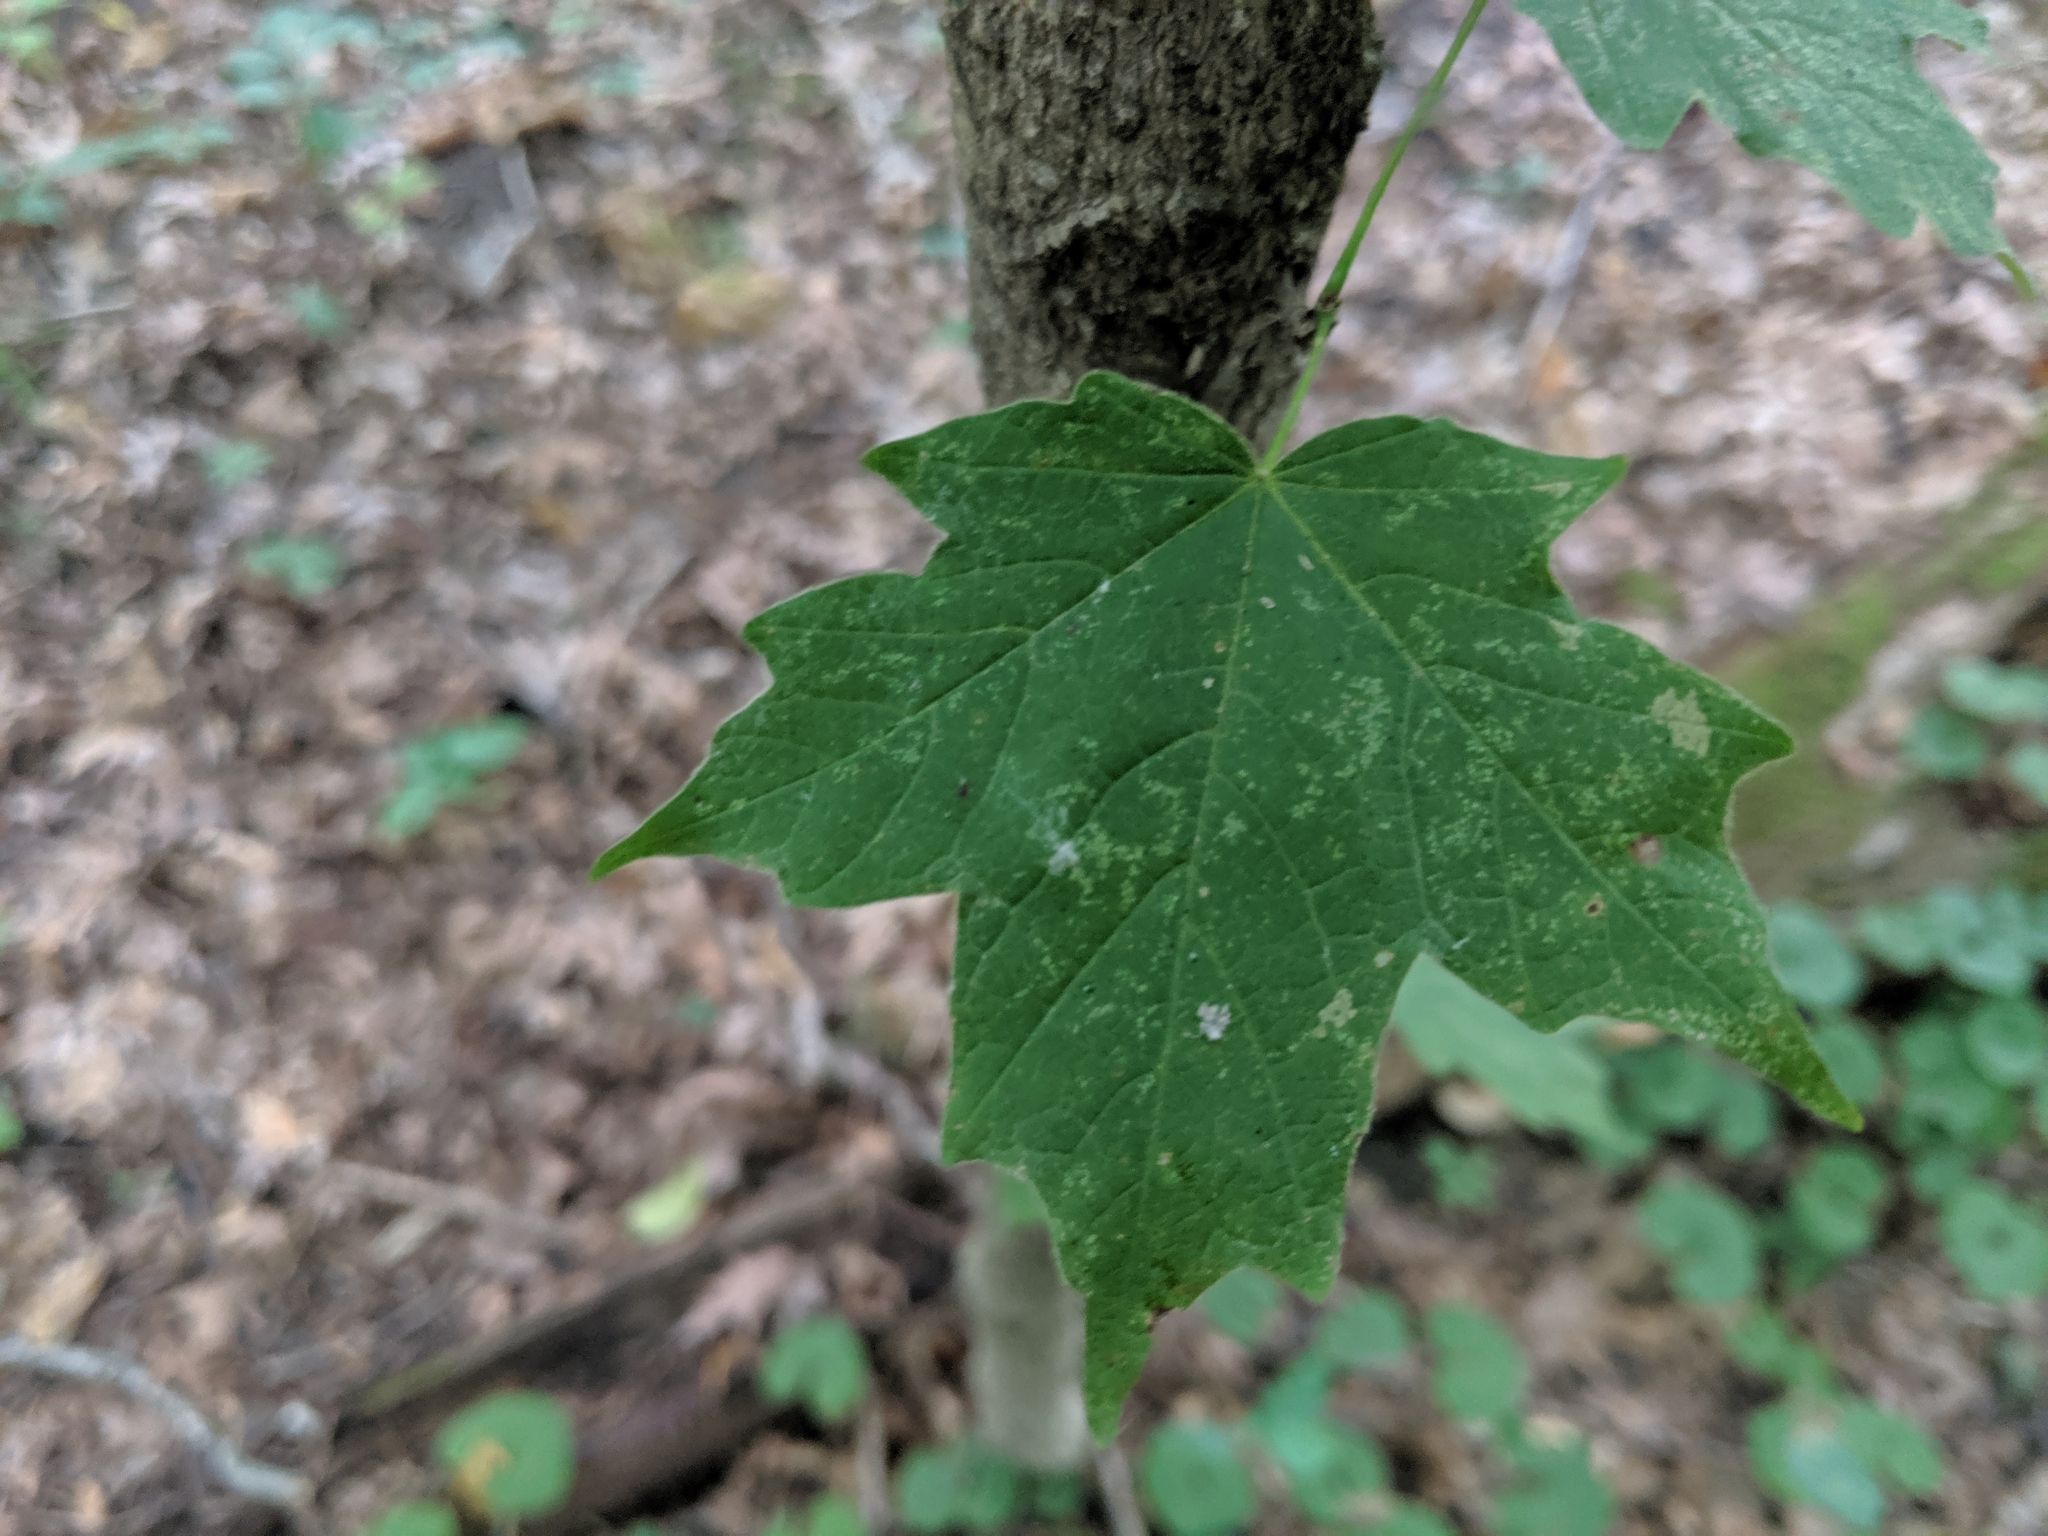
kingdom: Plantae
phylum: Tracheophyta
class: Magnoliopsida
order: Sapindales
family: Sapindaceae
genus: Acer
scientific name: Acer nigrum
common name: Black maple
